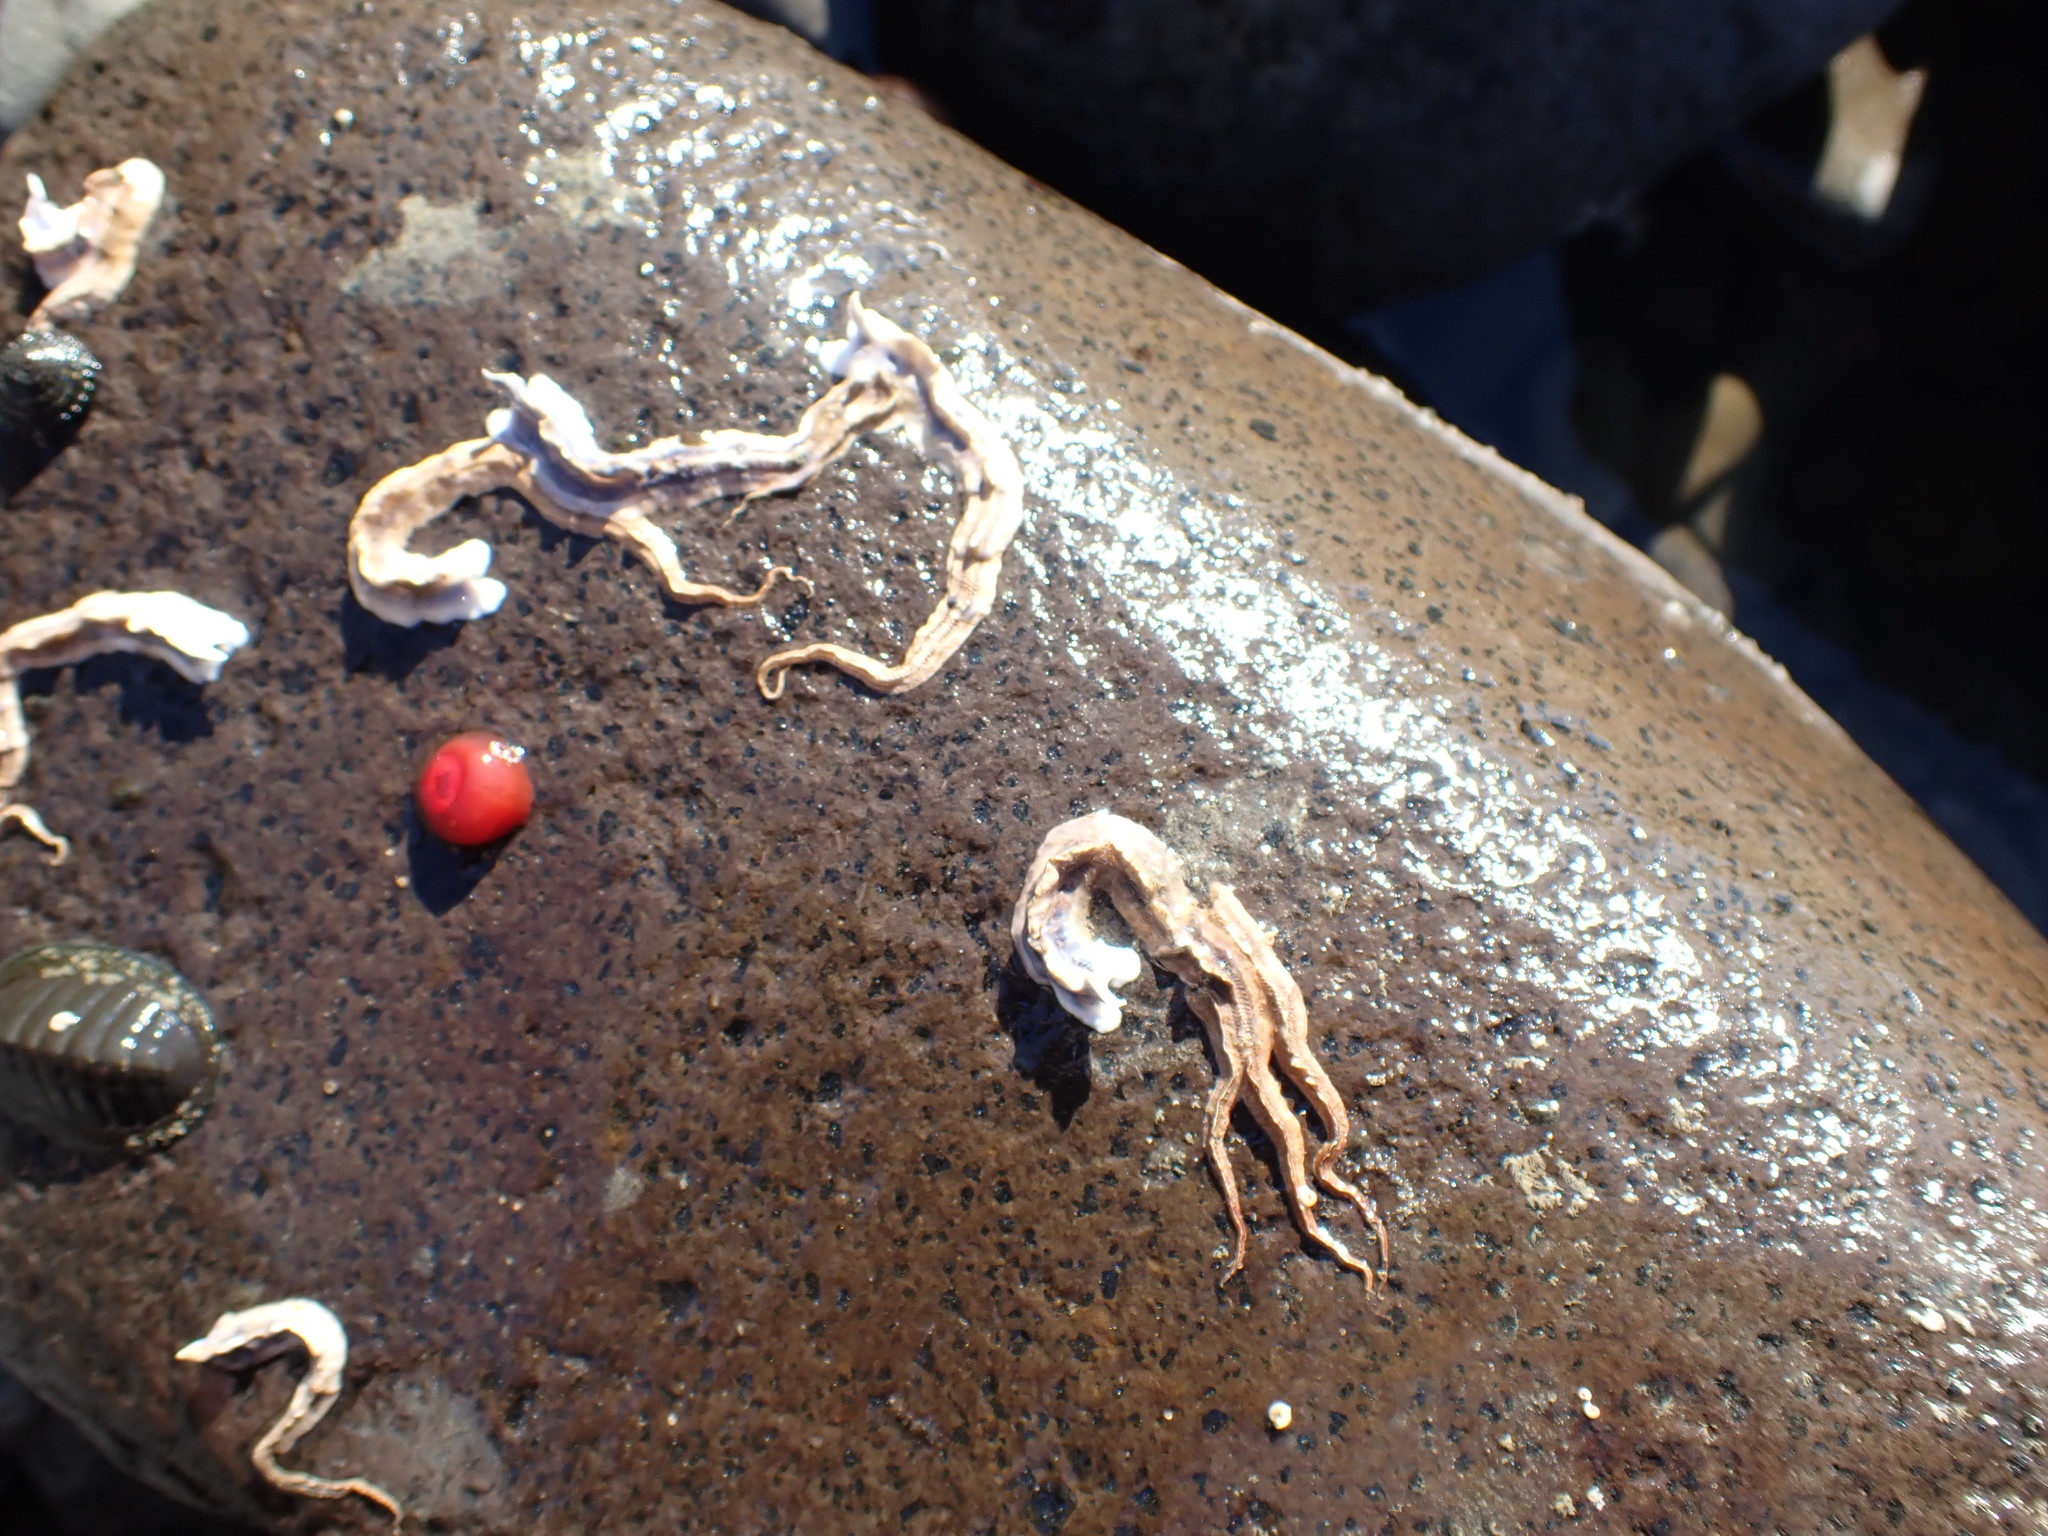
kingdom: Animalia
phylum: Annelida
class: Polychaeta
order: Sabellida
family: Serpulidae
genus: Spirobranchus
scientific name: Spirobranchus cariniferus
